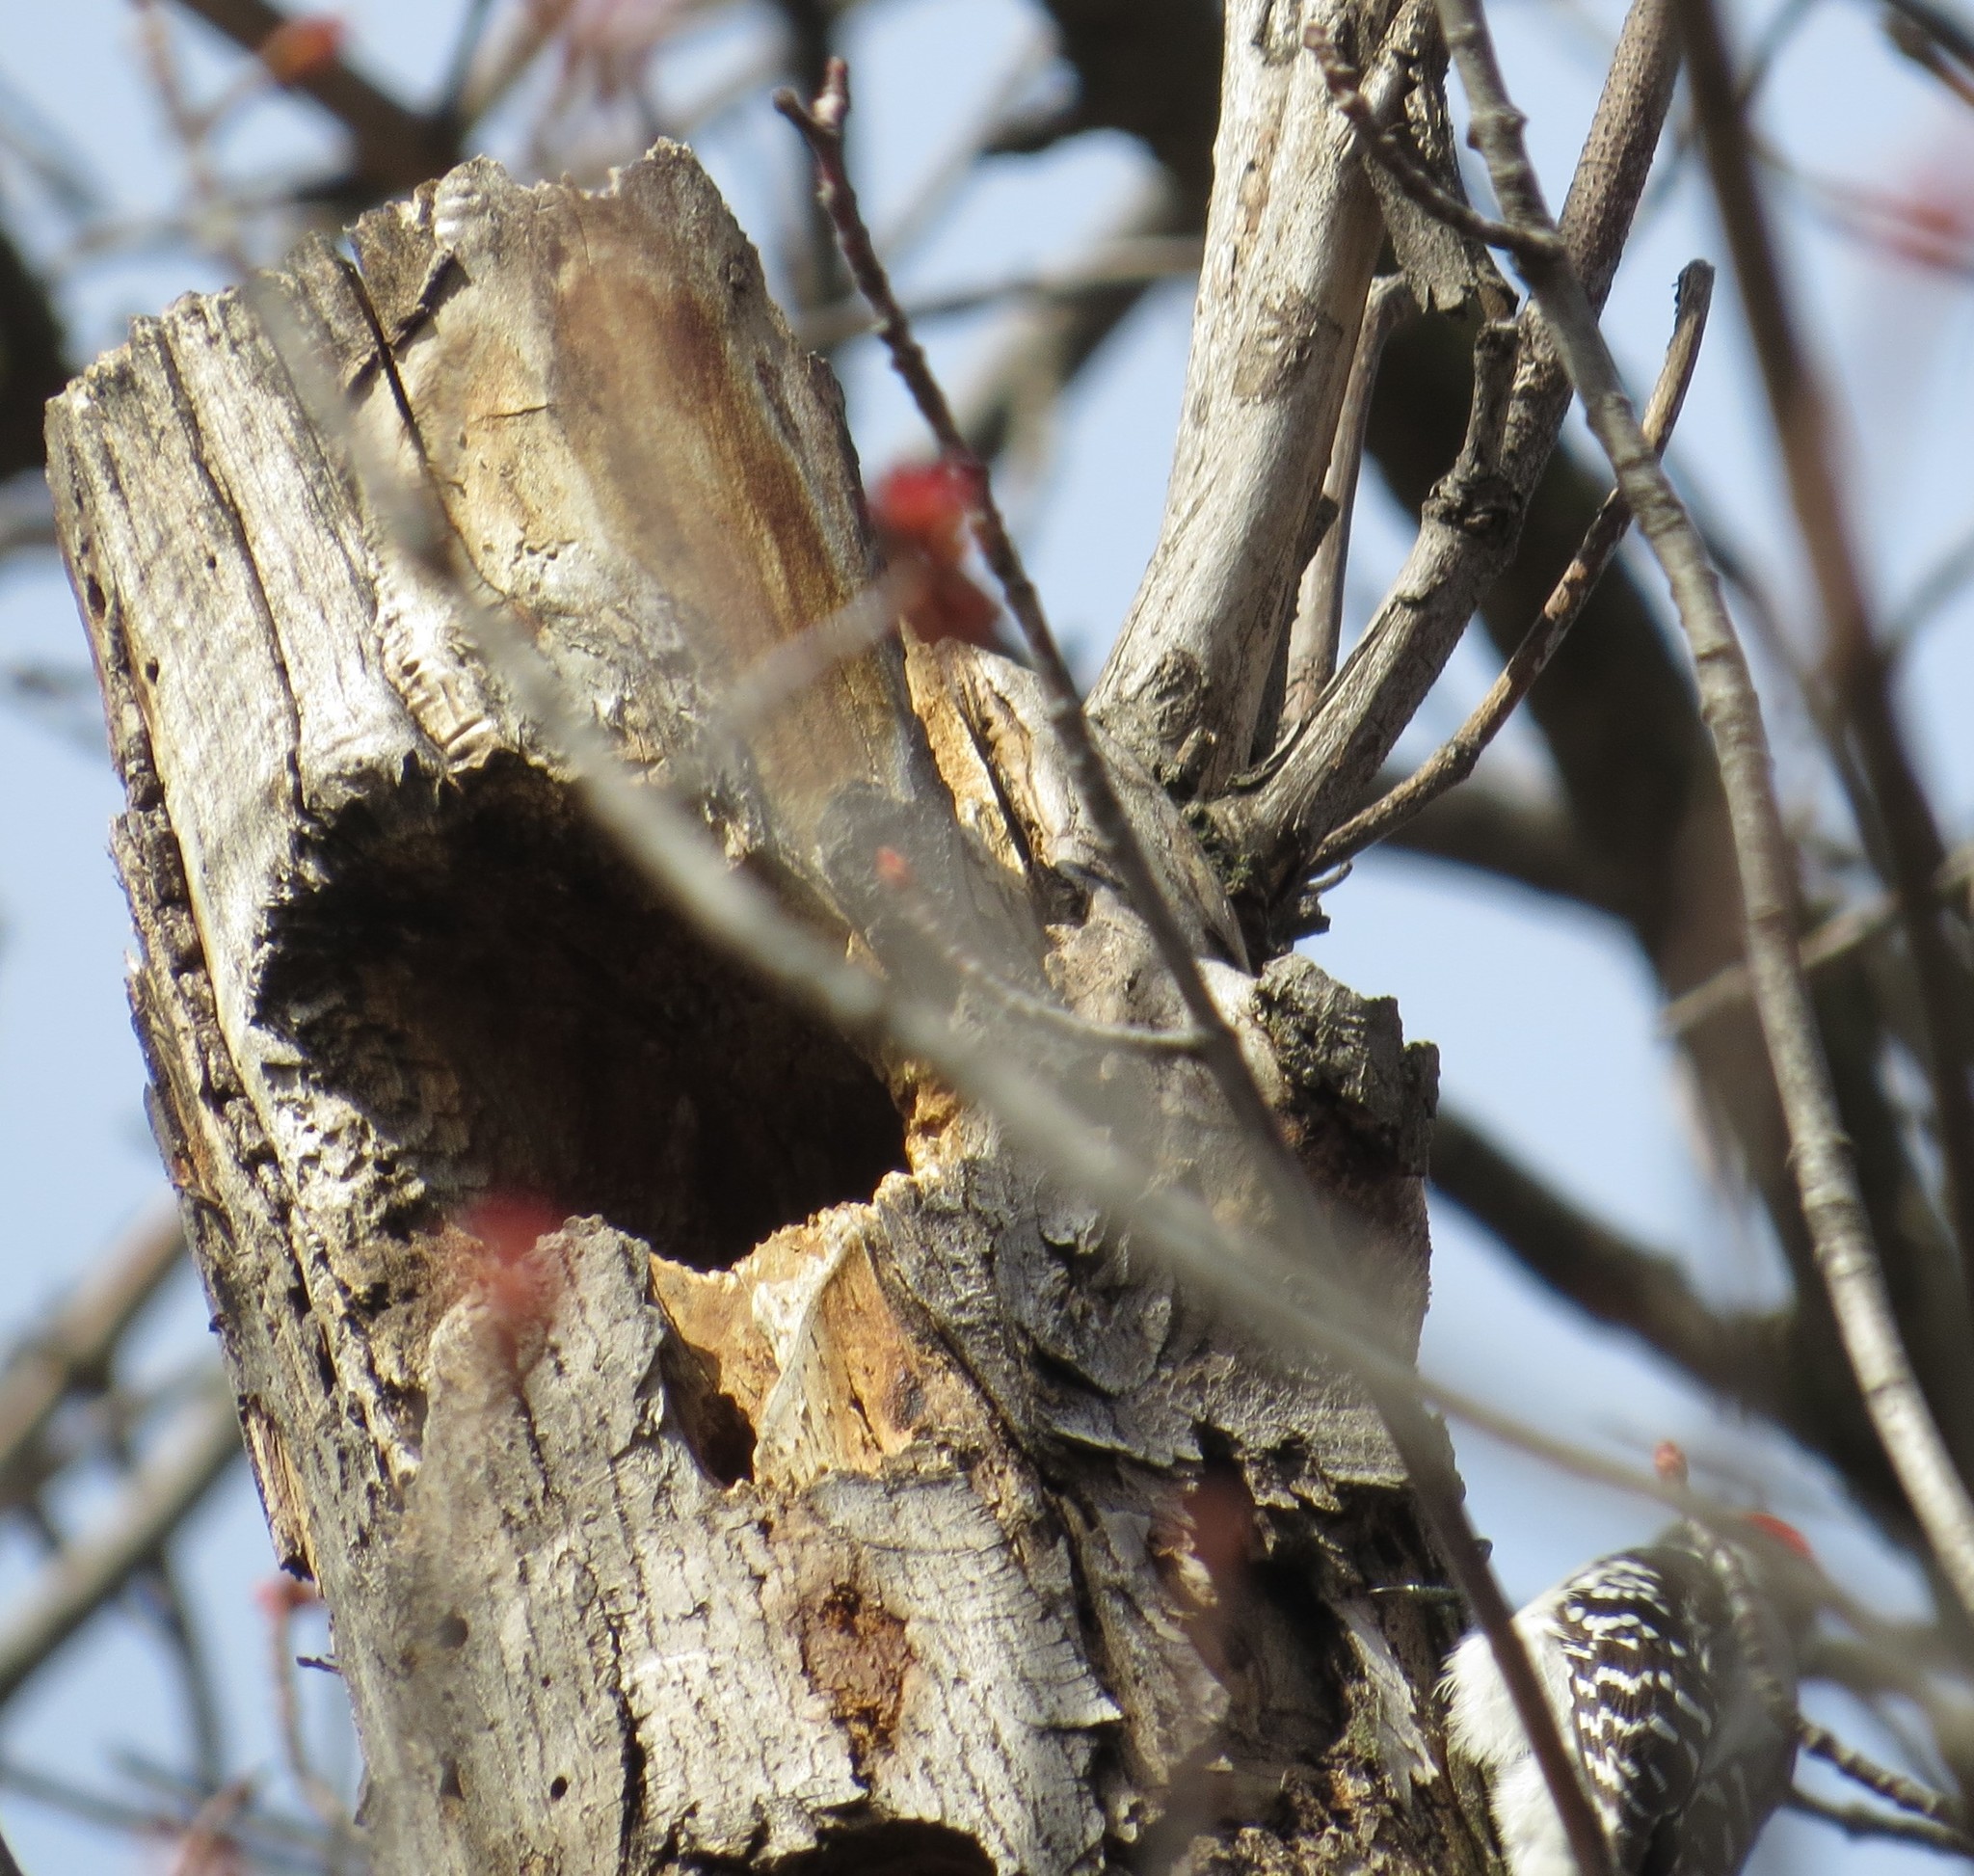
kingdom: Animalia
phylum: Chordata
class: Aves
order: Piciformes
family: Picidae
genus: Dryobates
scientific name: Dryobates pubescens
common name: Downy woodpecker
